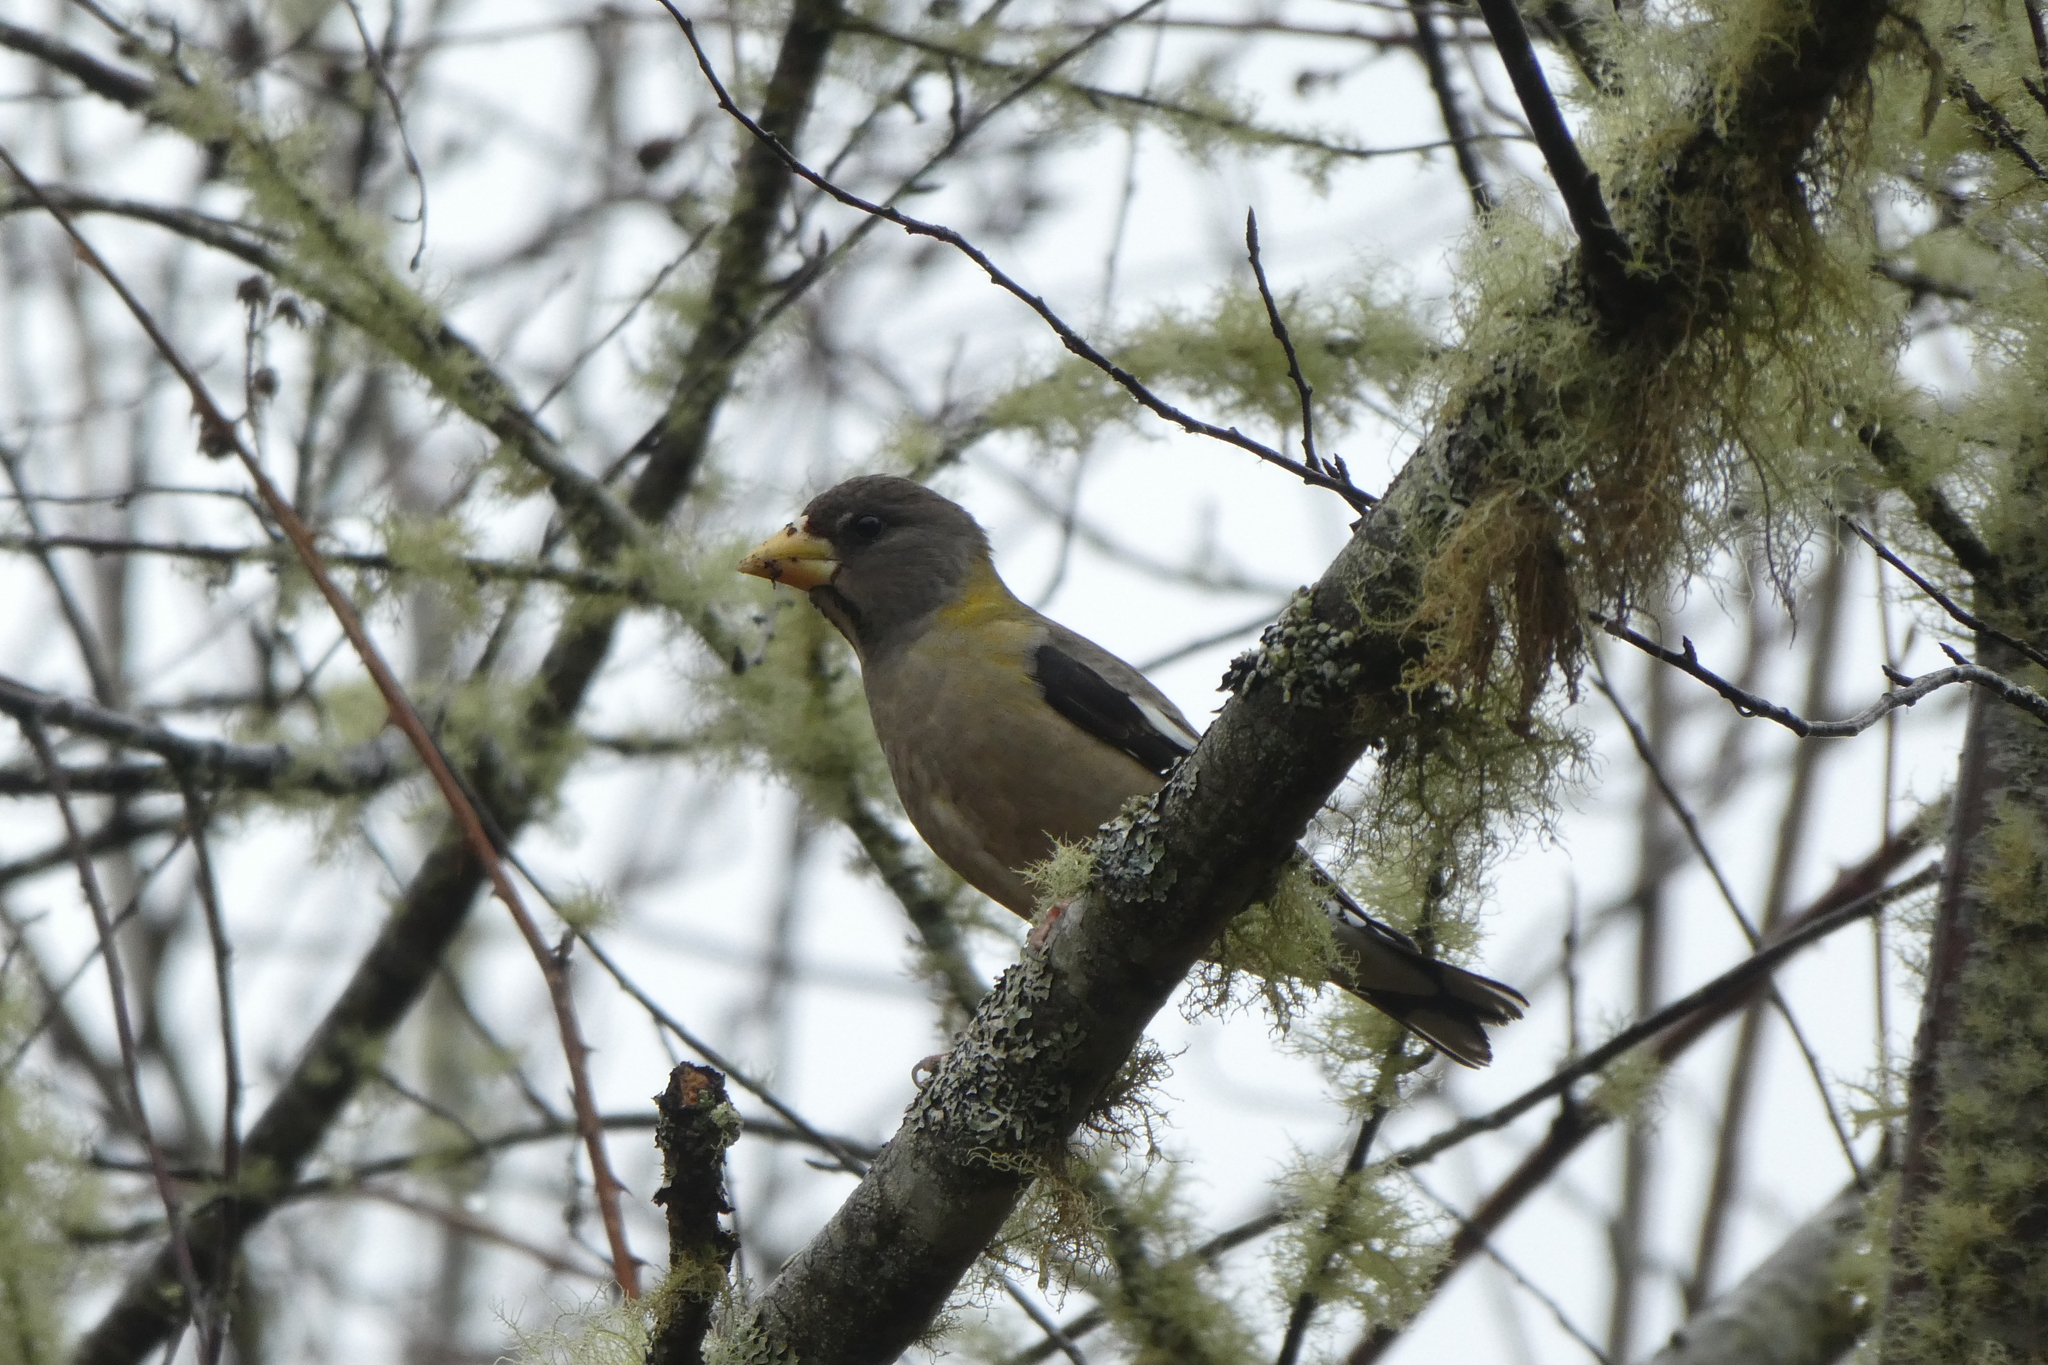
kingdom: Animalia
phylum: Chordata
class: Aves
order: Passeriformes
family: Fringillidae
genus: Hesperiphona
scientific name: Hesperiphona vespertina
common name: Evening grosbeak
